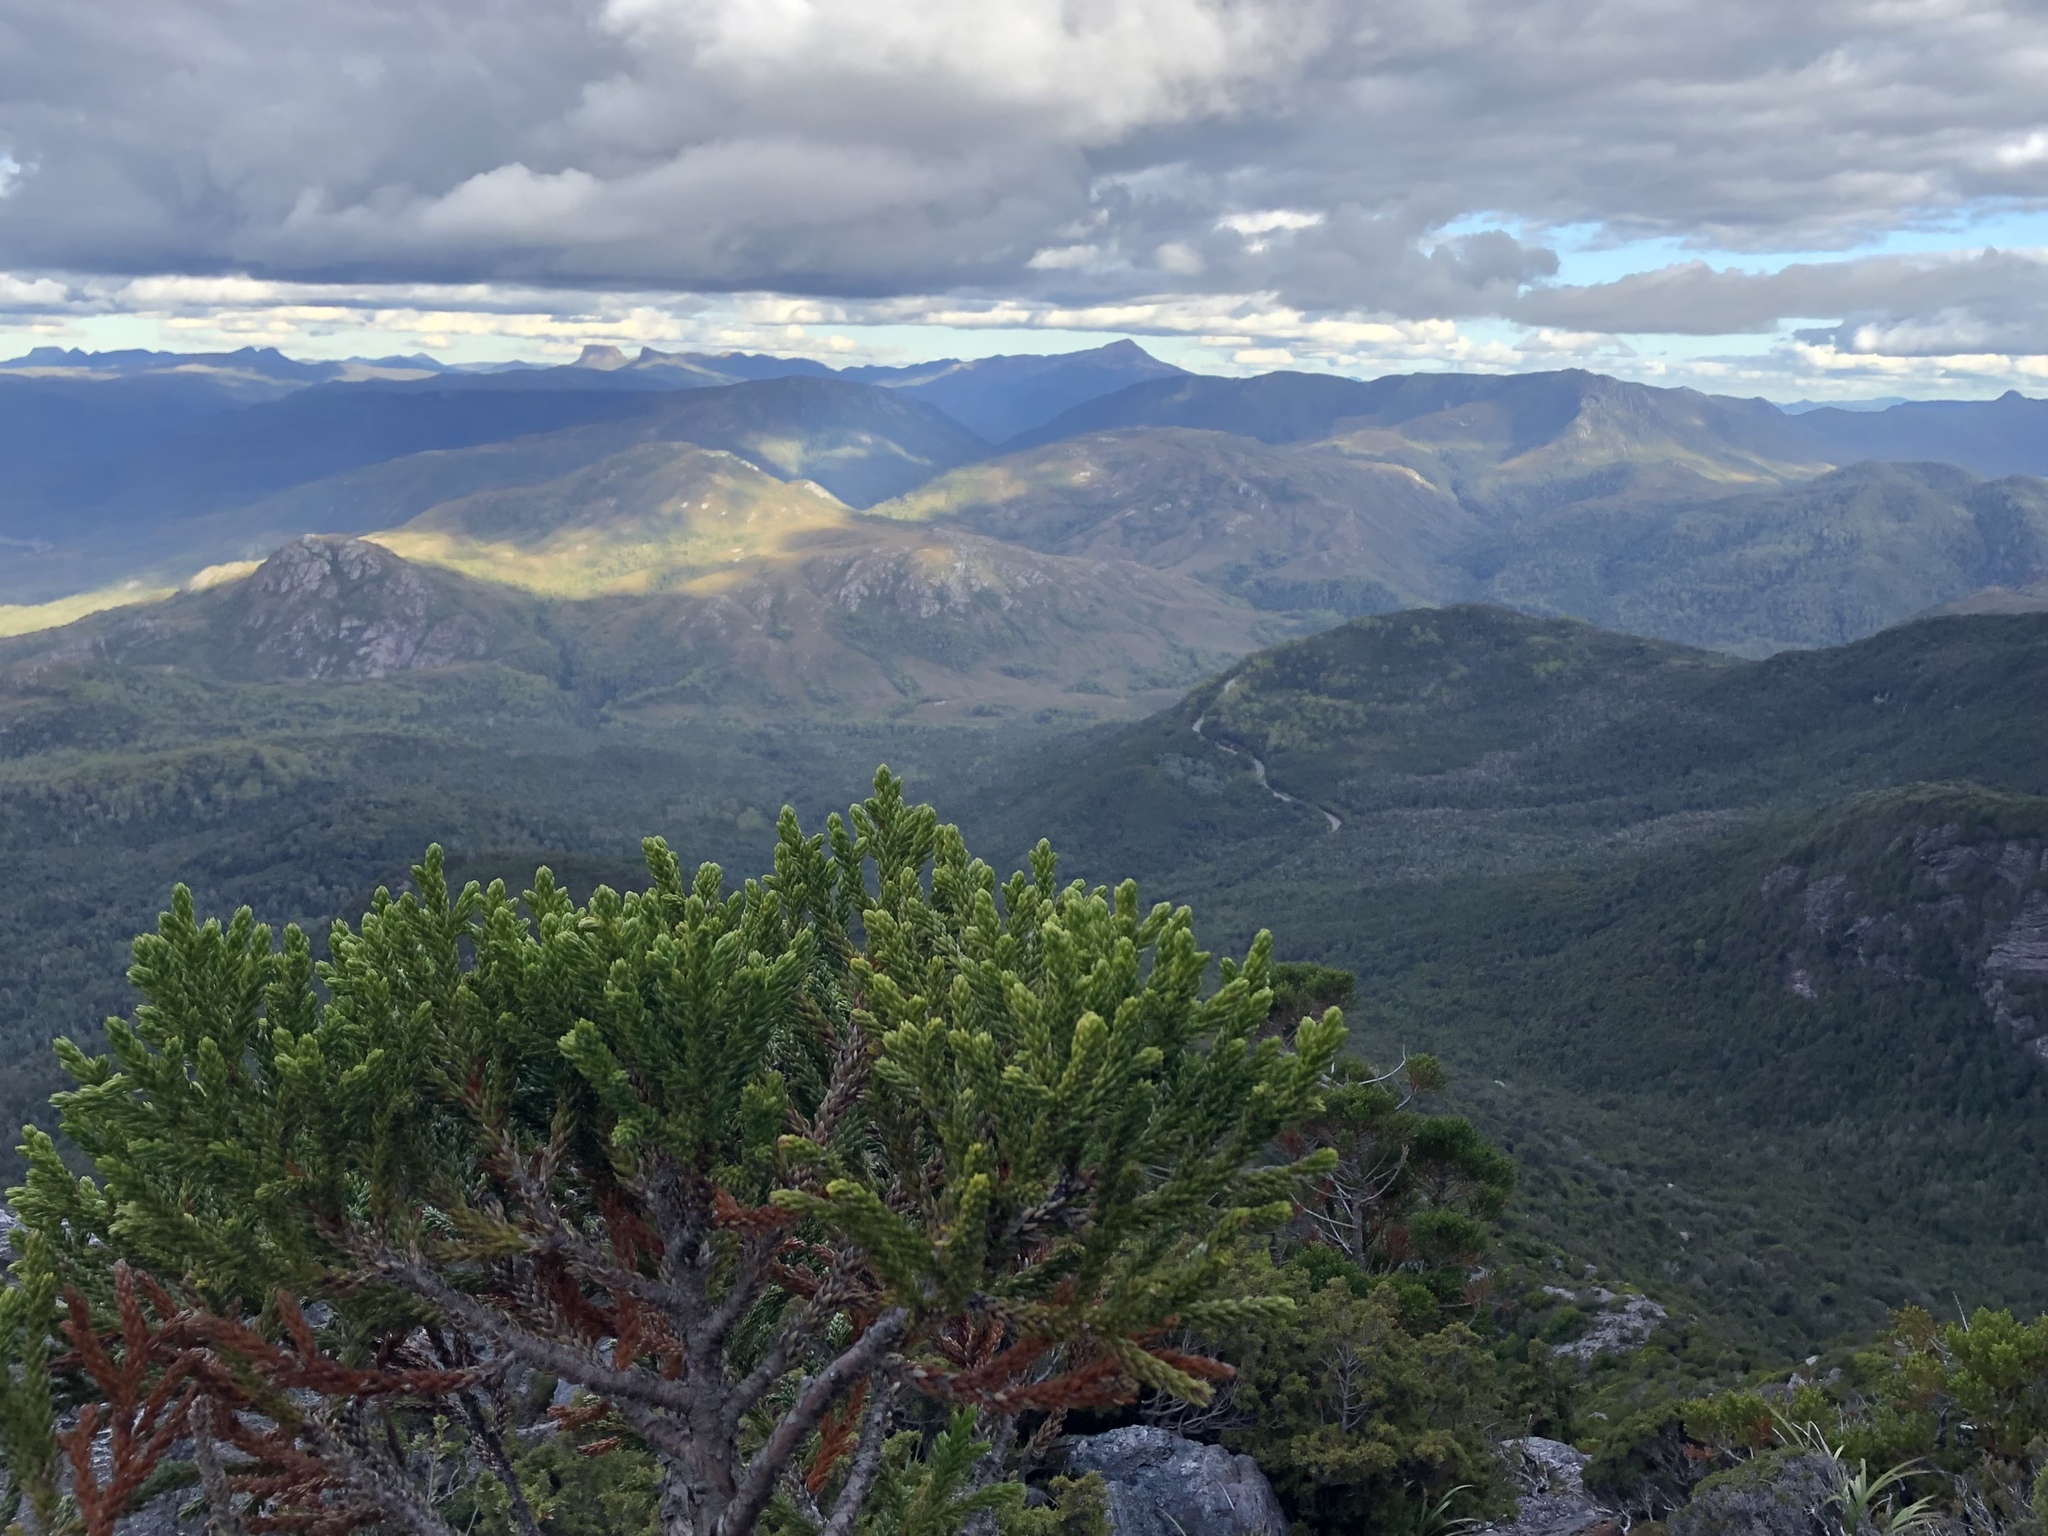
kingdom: Plantae
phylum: Tracheophyta
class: Pinopsida
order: Pinales
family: Cupressaceae
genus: Athrotaxis
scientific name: Athrotaxis selaginoides
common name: King william pine
